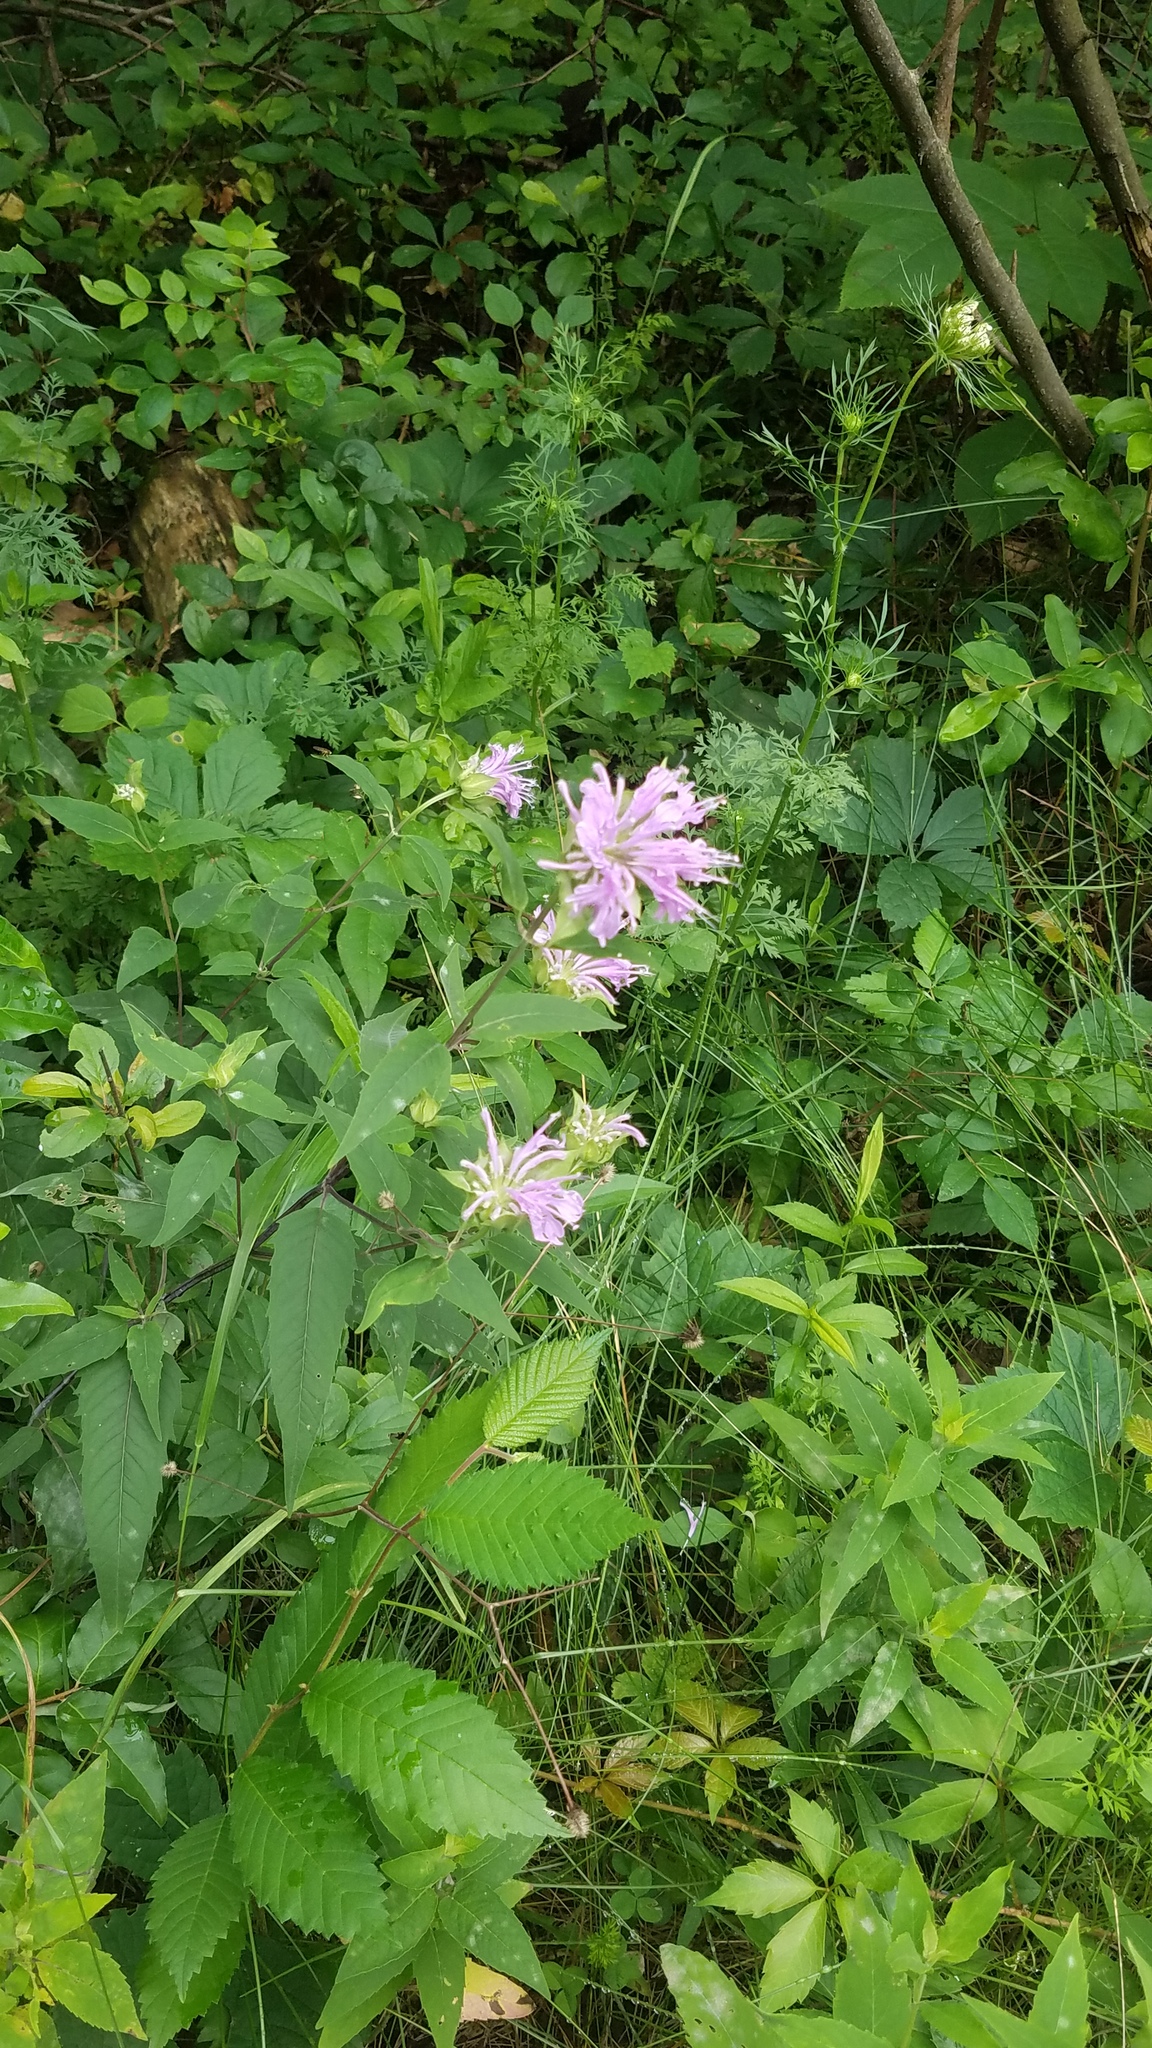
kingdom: Plantae
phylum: Tracheophyta
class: Magnoliopsida
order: Lamiales
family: Lamiaceae
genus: Monarda
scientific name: Monarda fistulosa
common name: Purple beebalm
